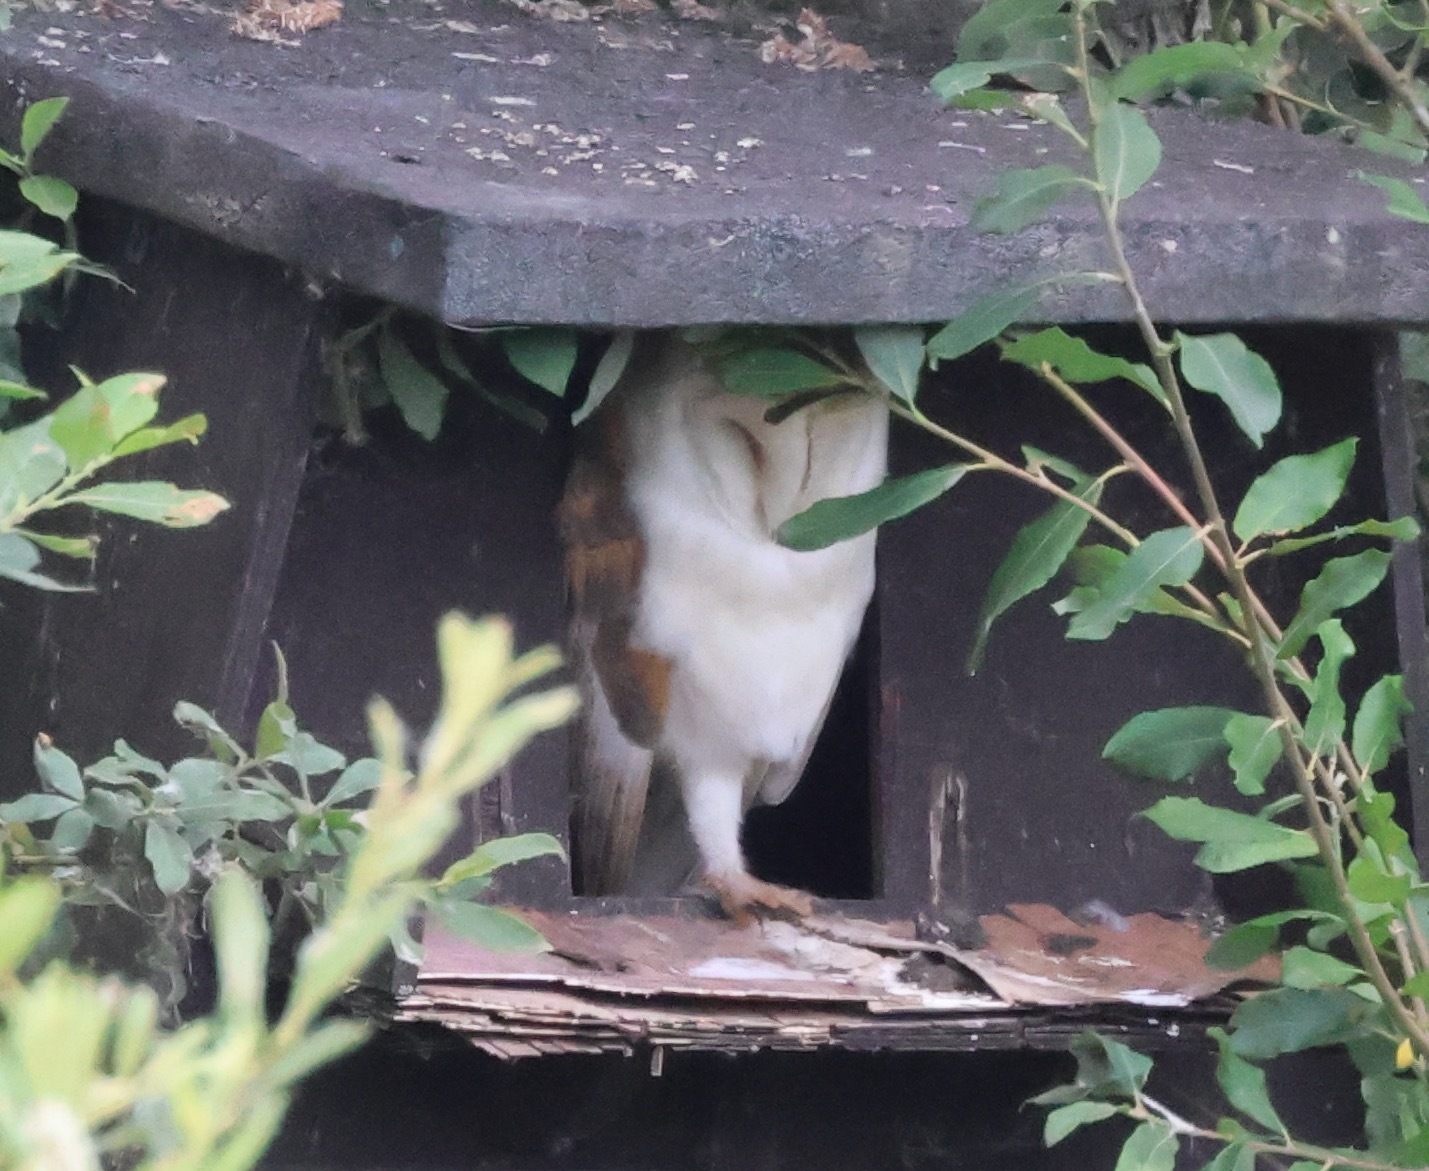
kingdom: Animalia
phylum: Chordata
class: Aves
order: Strigiformes
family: Tytonidae
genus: Tyto
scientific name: Tyto alba
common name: Barn owl
